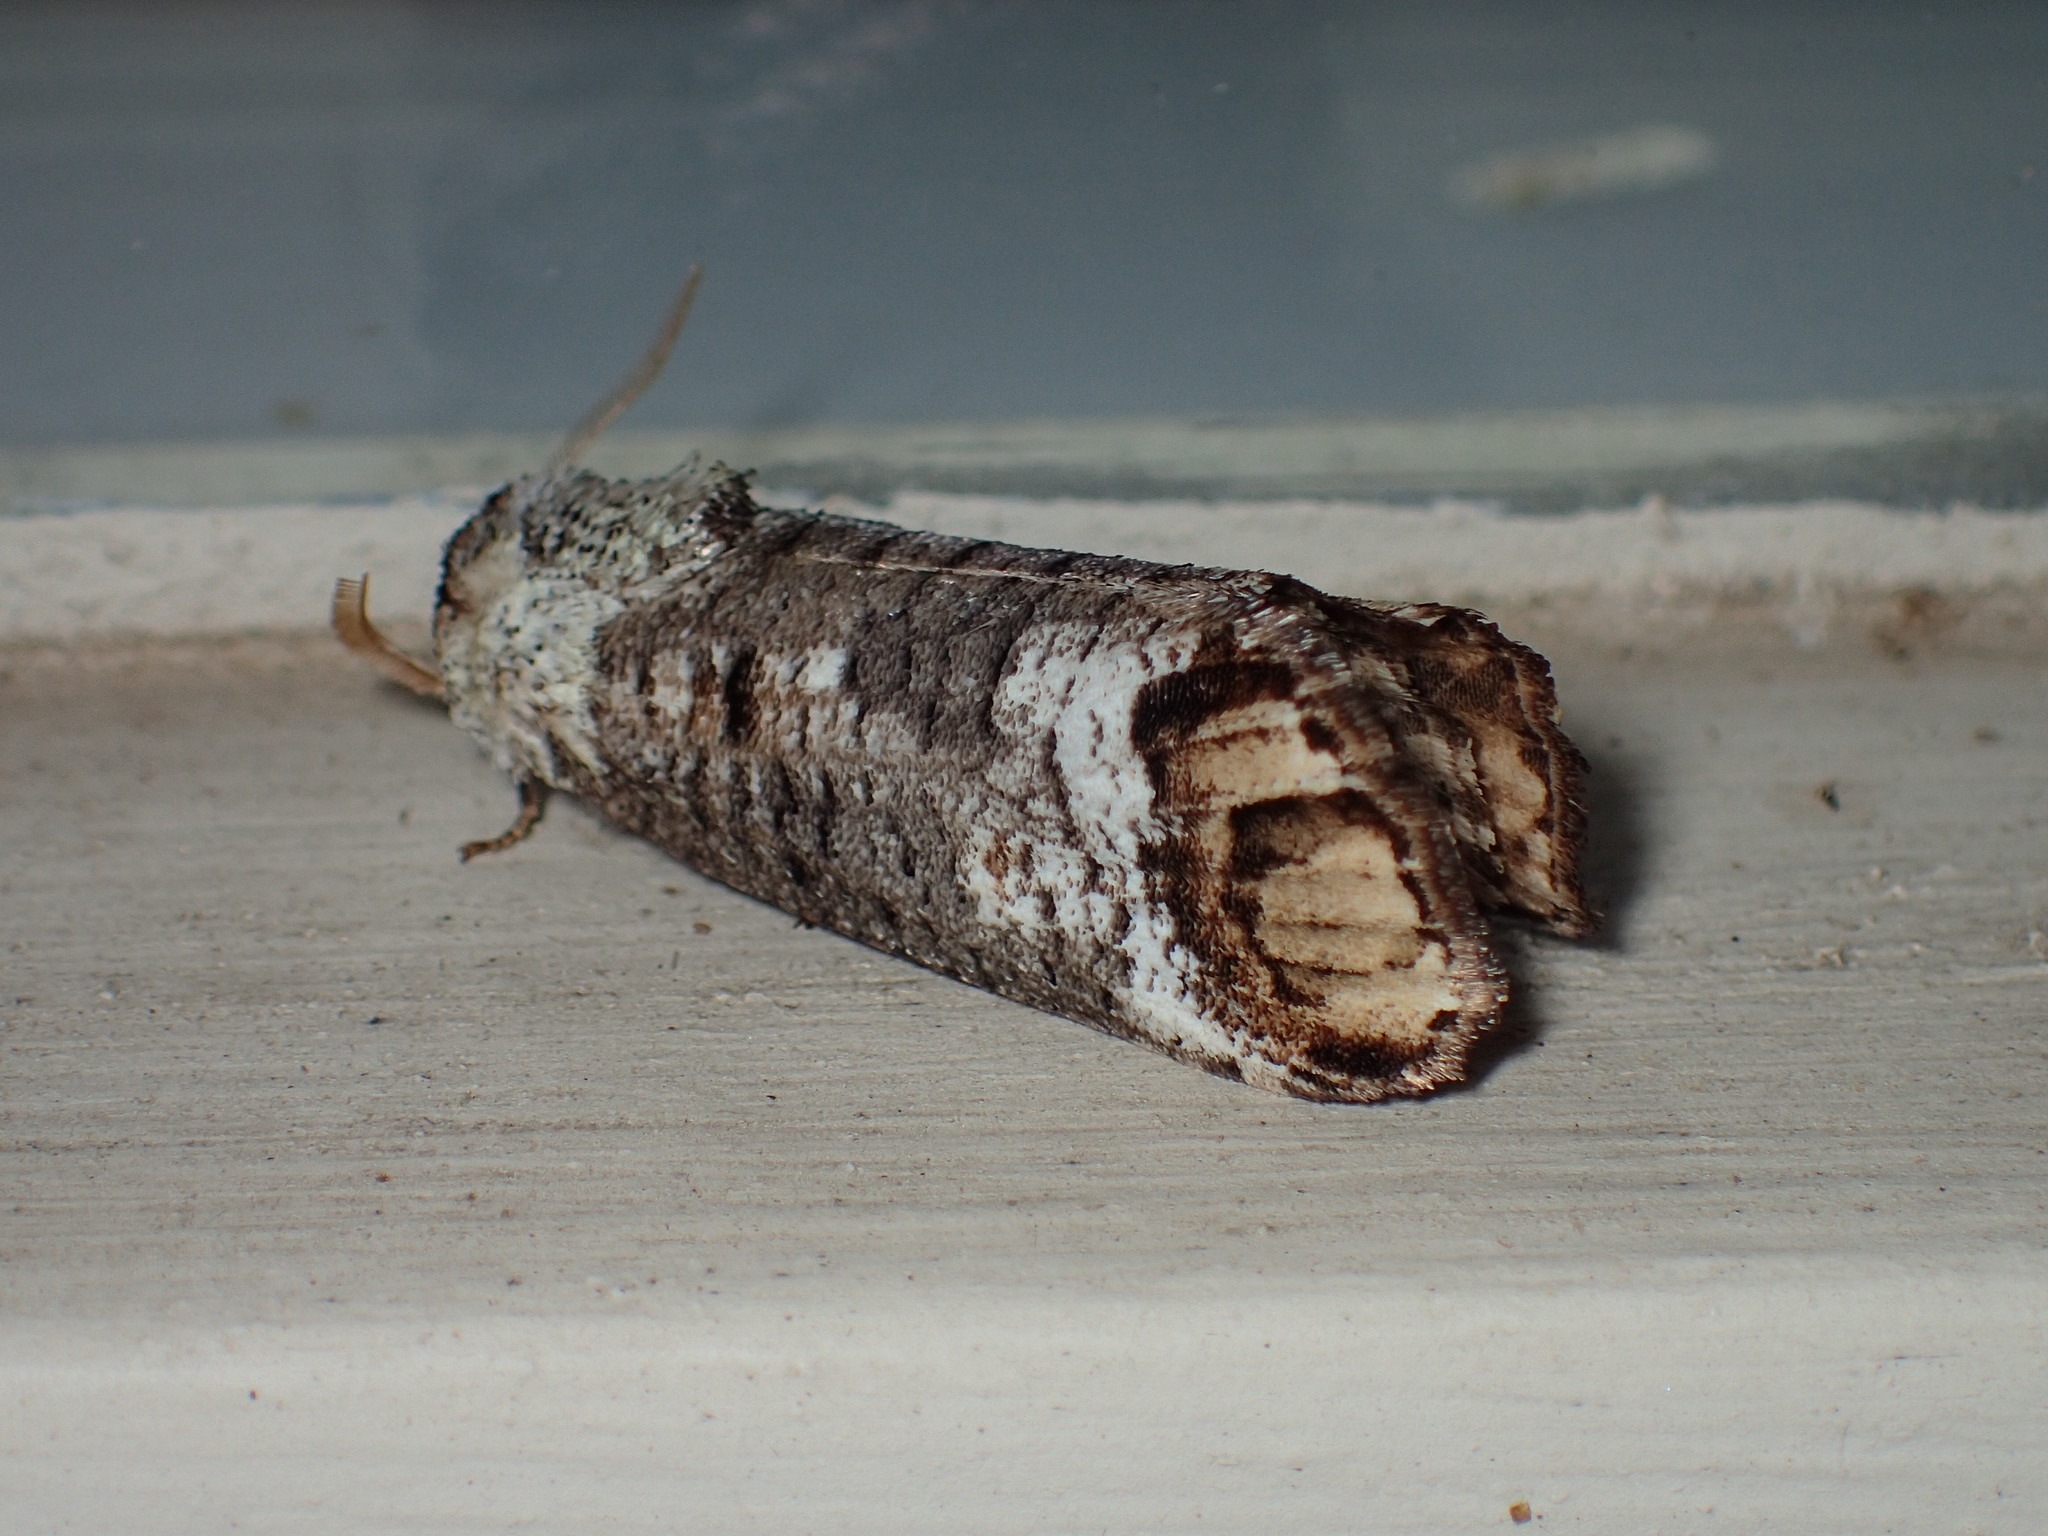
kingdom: Animalia
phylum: Arthropoda
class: Insecta
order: Lepidoptera
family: Cossidae
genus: Cossula
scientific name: Cossula magnifica
